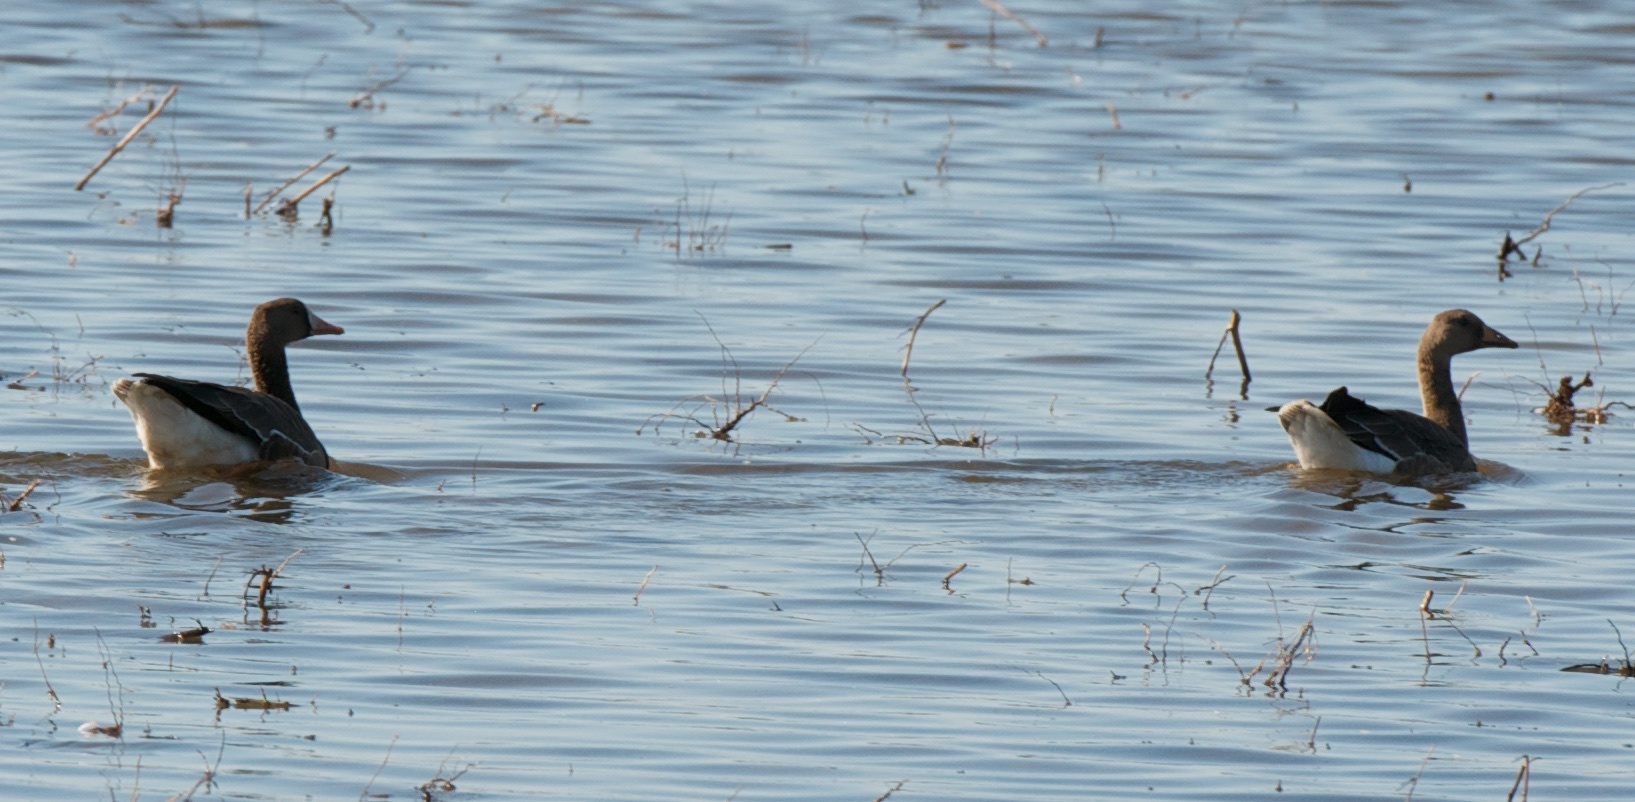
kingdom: Animalia
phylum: Chordata
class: Aves
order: Anseriformes
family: Anatidae
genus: Anser
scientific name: Anser albifrons
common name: Greater white-fronted goose
